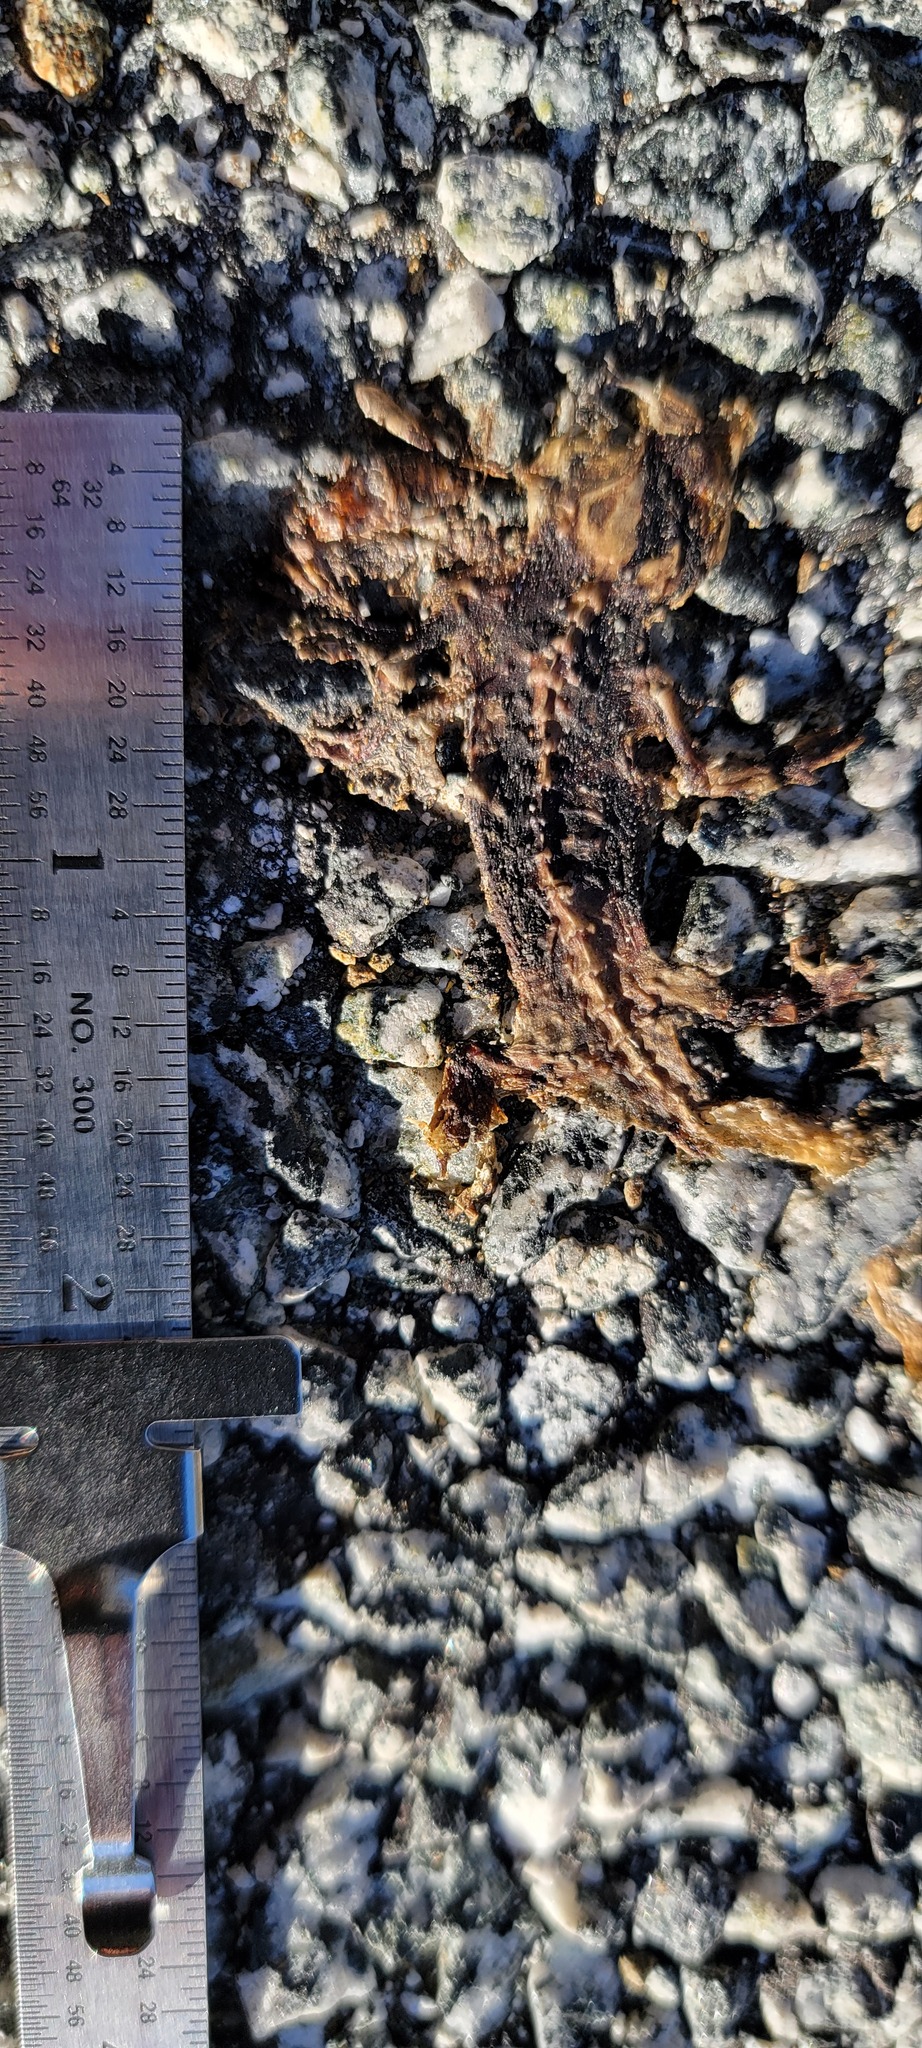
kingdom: Animalia
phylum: Chordata
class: Amphibia
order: Caudata
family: Salamandridae
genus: Taricha
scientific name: Taricha
